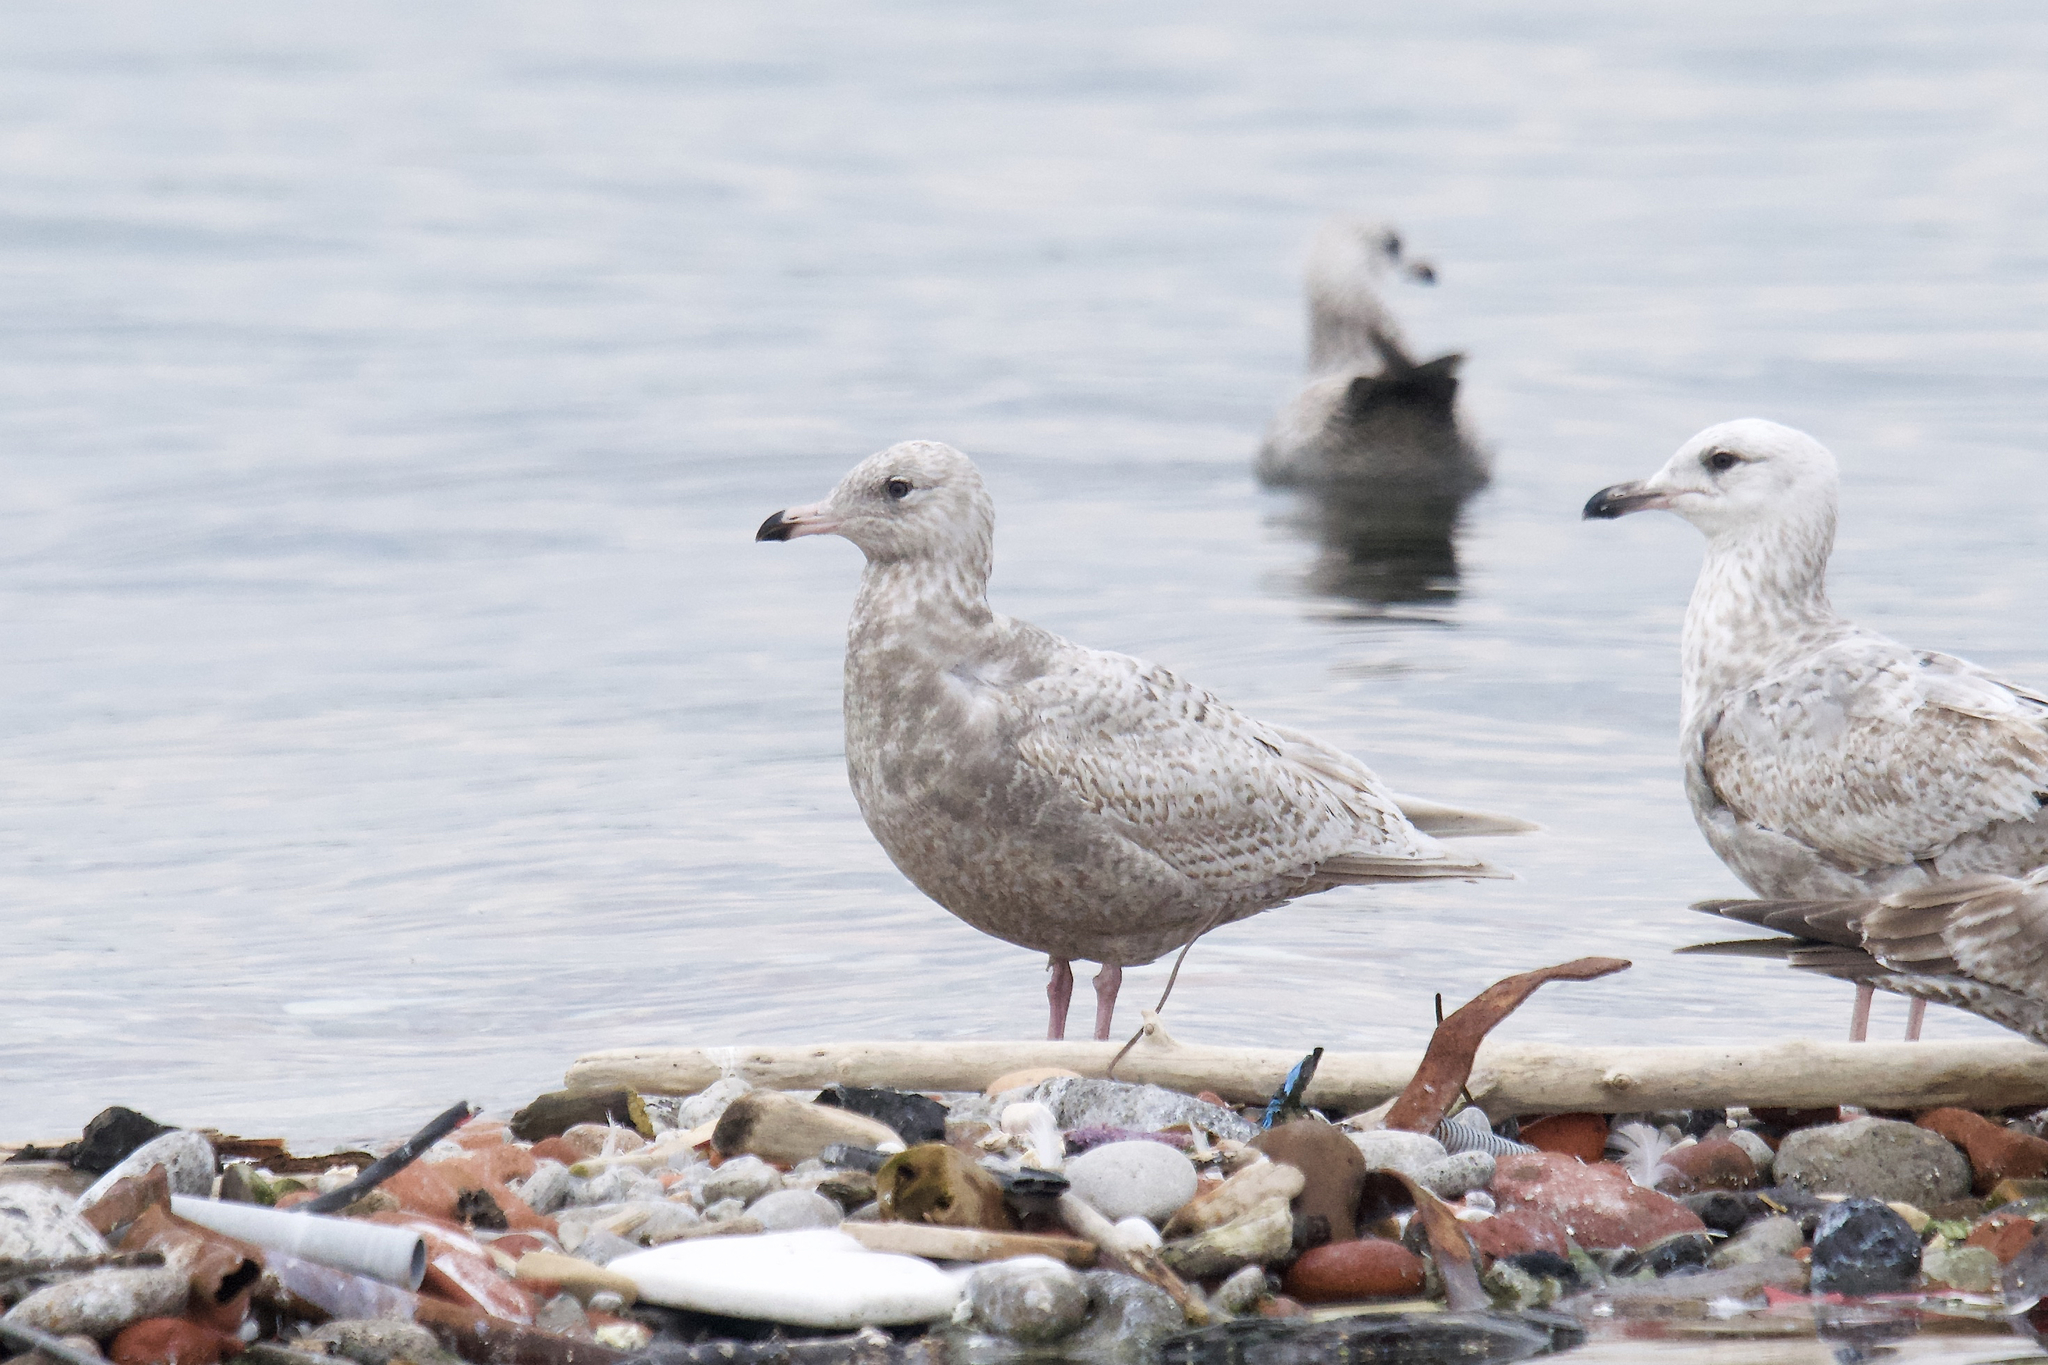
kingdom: Animalia
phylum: Chordata
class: Aves
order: Charadriiformes
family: Laridae
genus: Larus
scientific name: Larus
